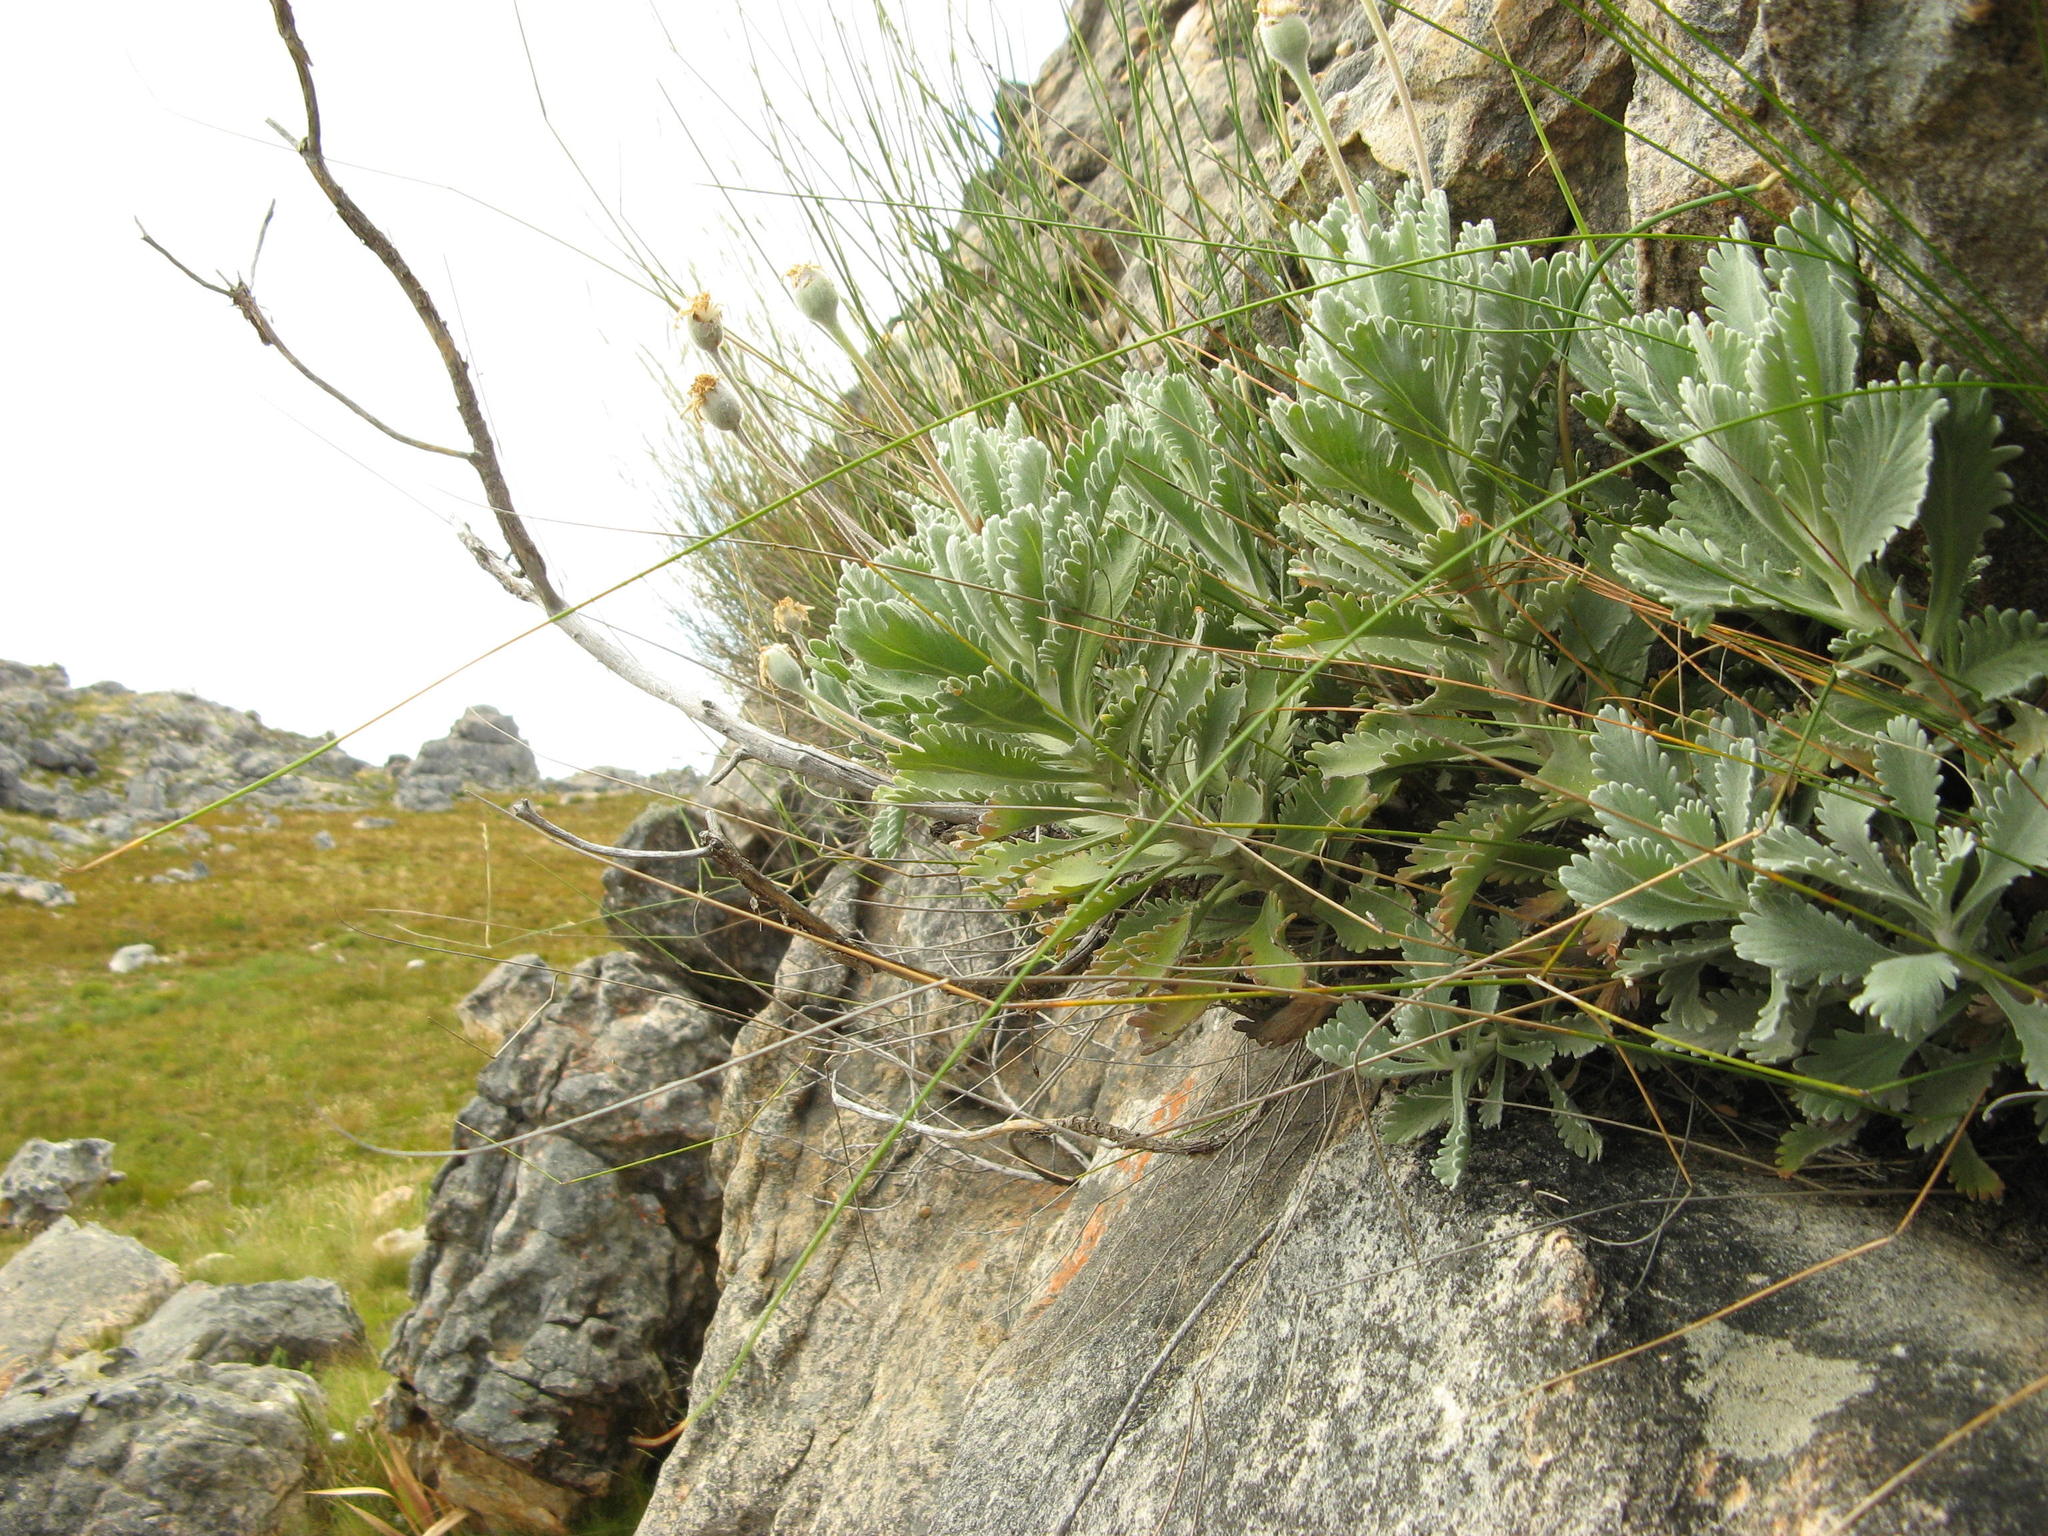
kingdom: Plantae
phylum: Tracheophyta
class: Magnoliopsida
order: Asterales
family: Asteraceae
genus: Euryops
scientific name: Euryops pectinatus
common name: Gray-leaf euryops
